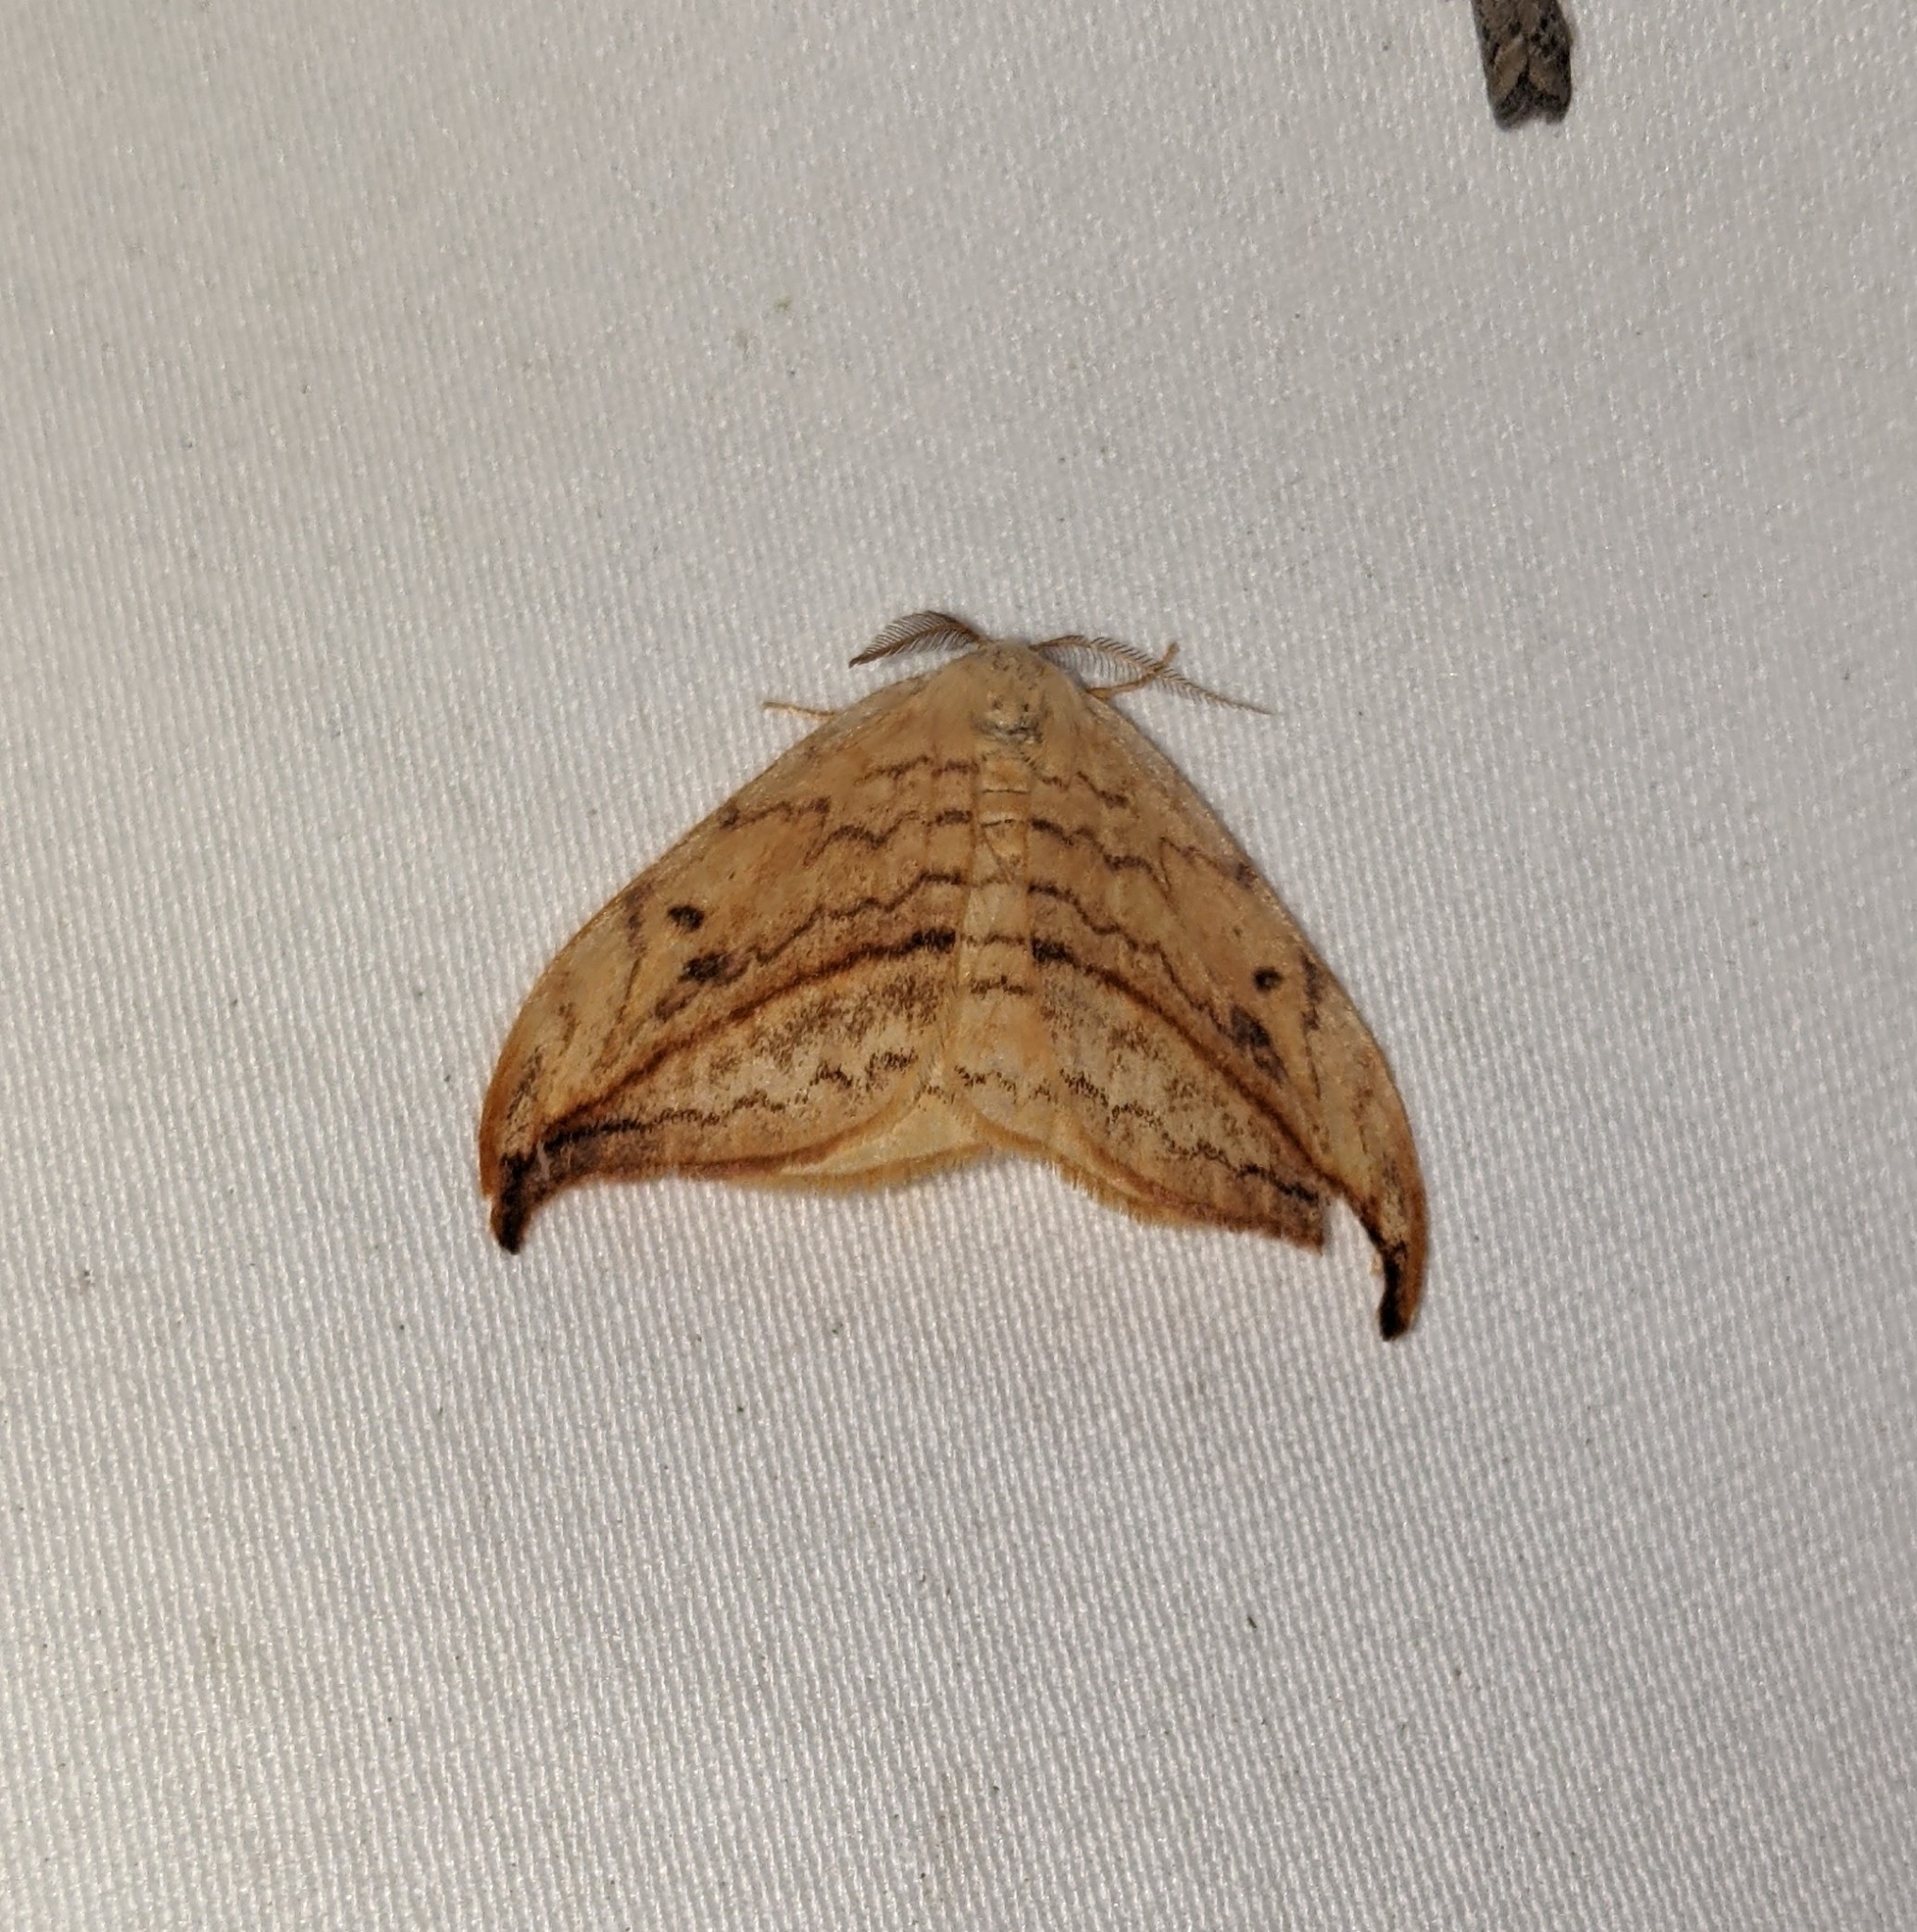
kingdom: Animalia
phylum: Arthropoda
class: Insecta
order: Lepidoptera
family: Drepanidae
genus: Drepana
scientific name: Drepana arcuata
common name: Arched hooktip moth
